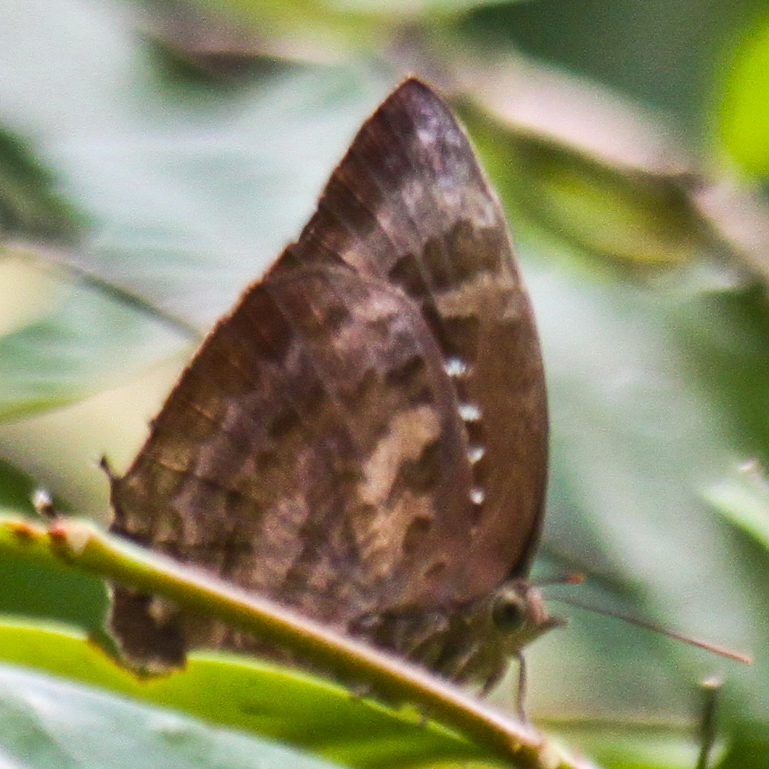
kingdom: Animalia
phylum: Arthropoda
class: Insecta
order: Lepidoptera
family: Lycaenidae
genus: Arhopala
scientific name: Arhopala centaurus
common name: Dull oak-blue
